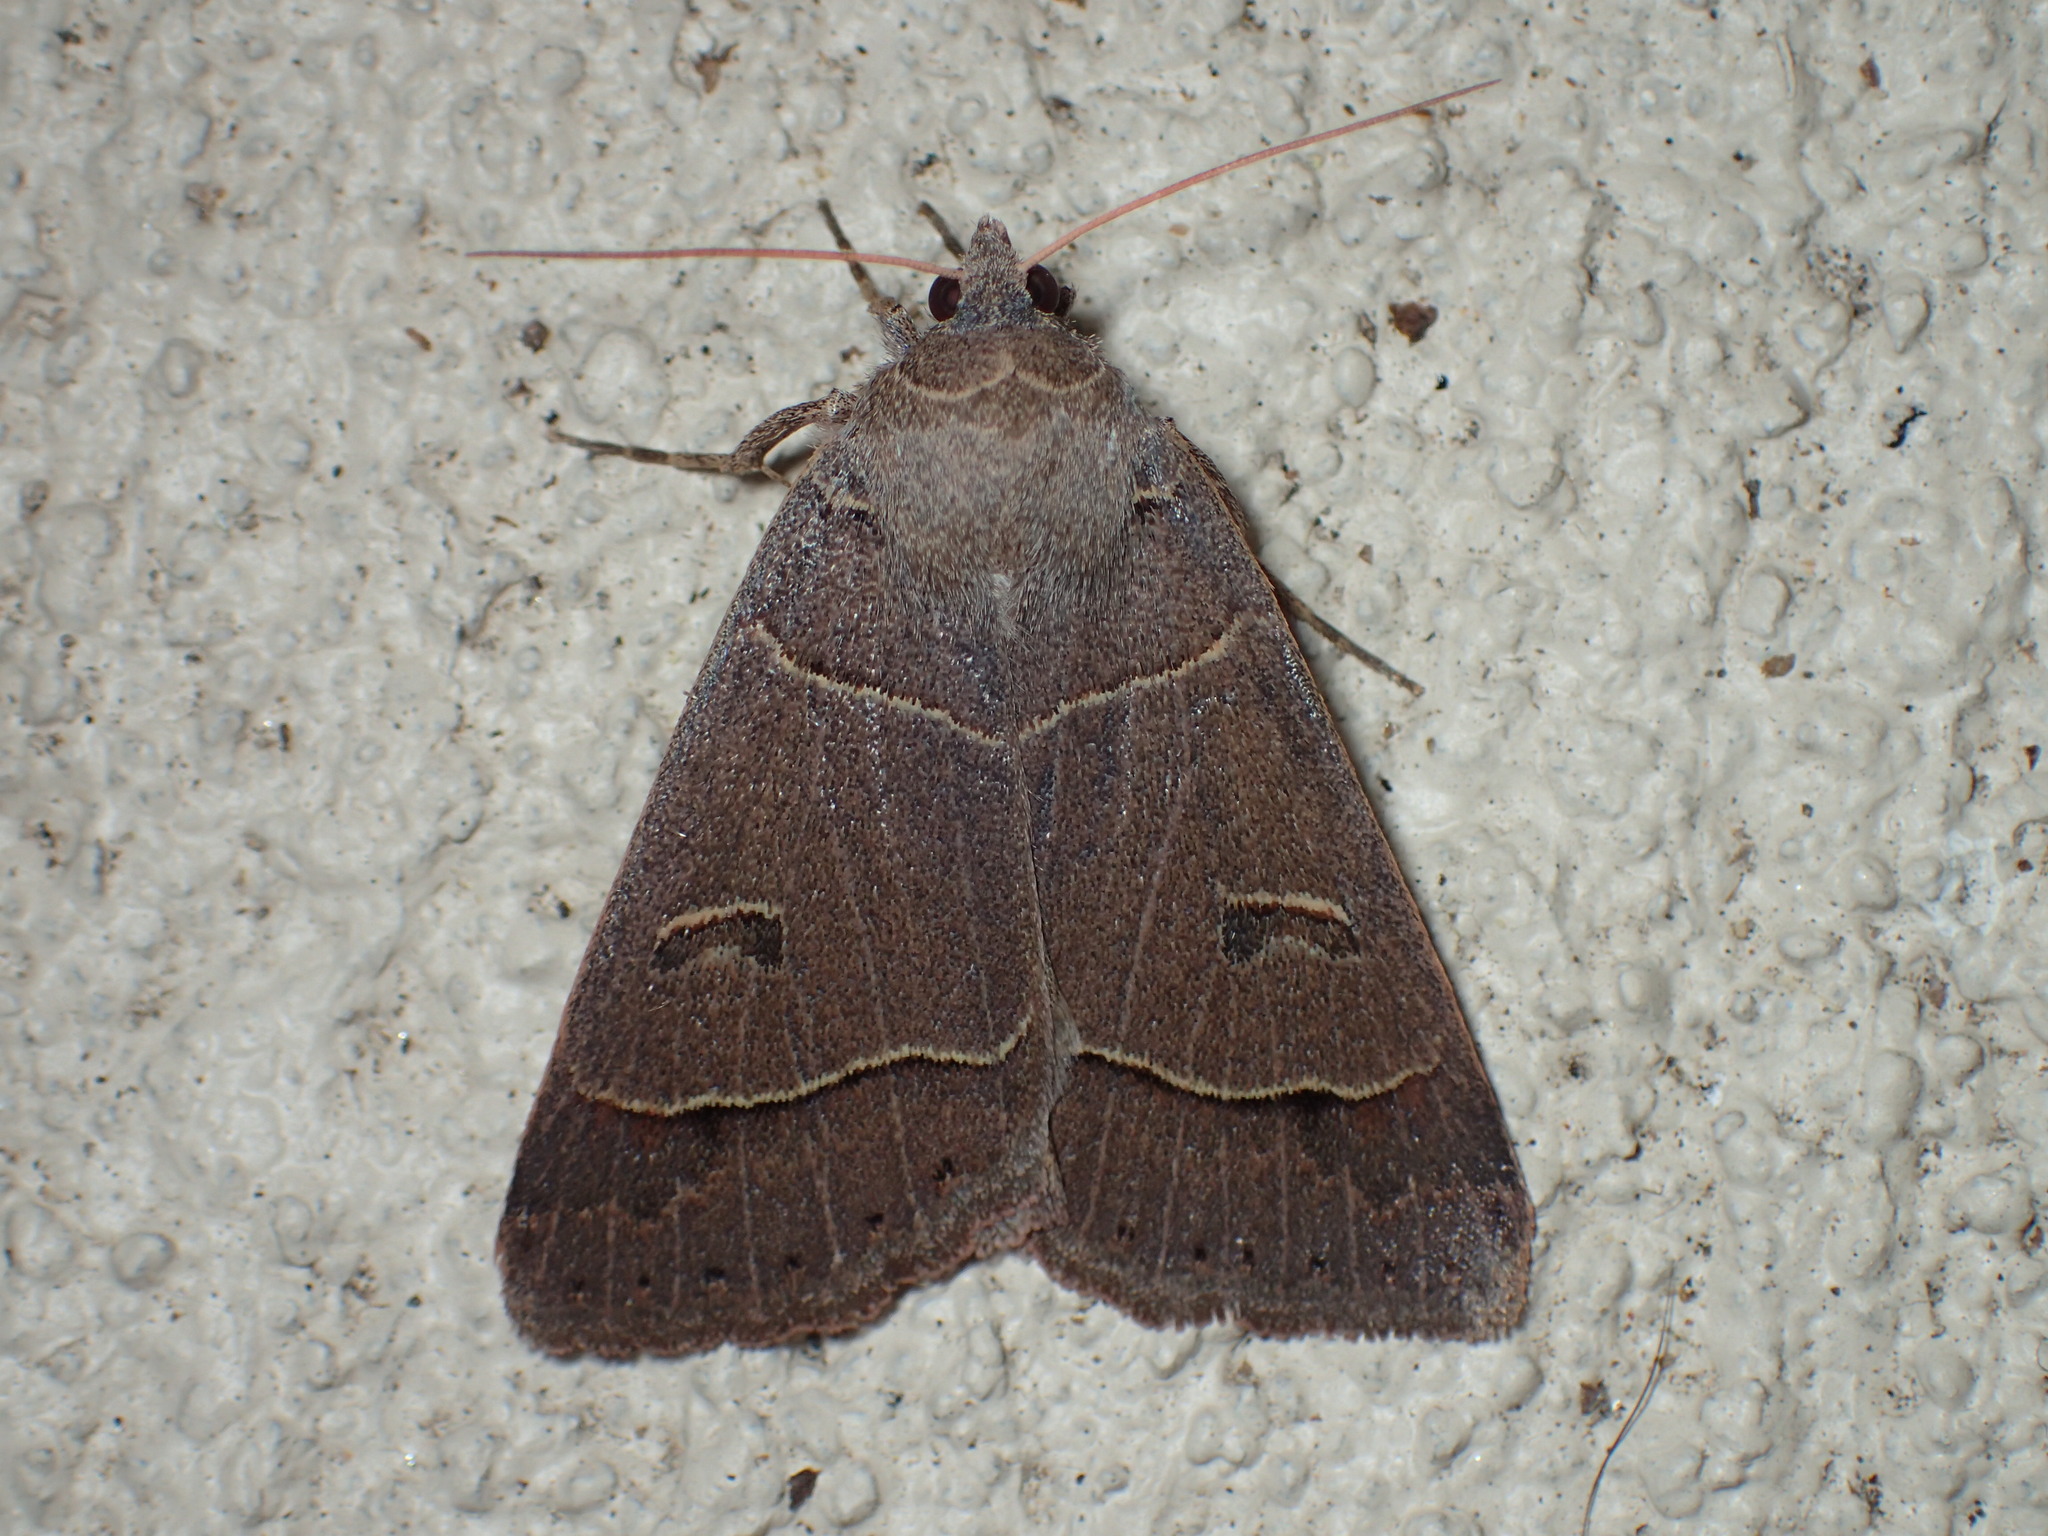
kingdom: Animalia
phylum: Arthropoda
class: Insecta
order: Lepidoptera
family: Erebidae
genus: Phoberia
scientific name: Phoberia atomaris
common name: Common oak moth
